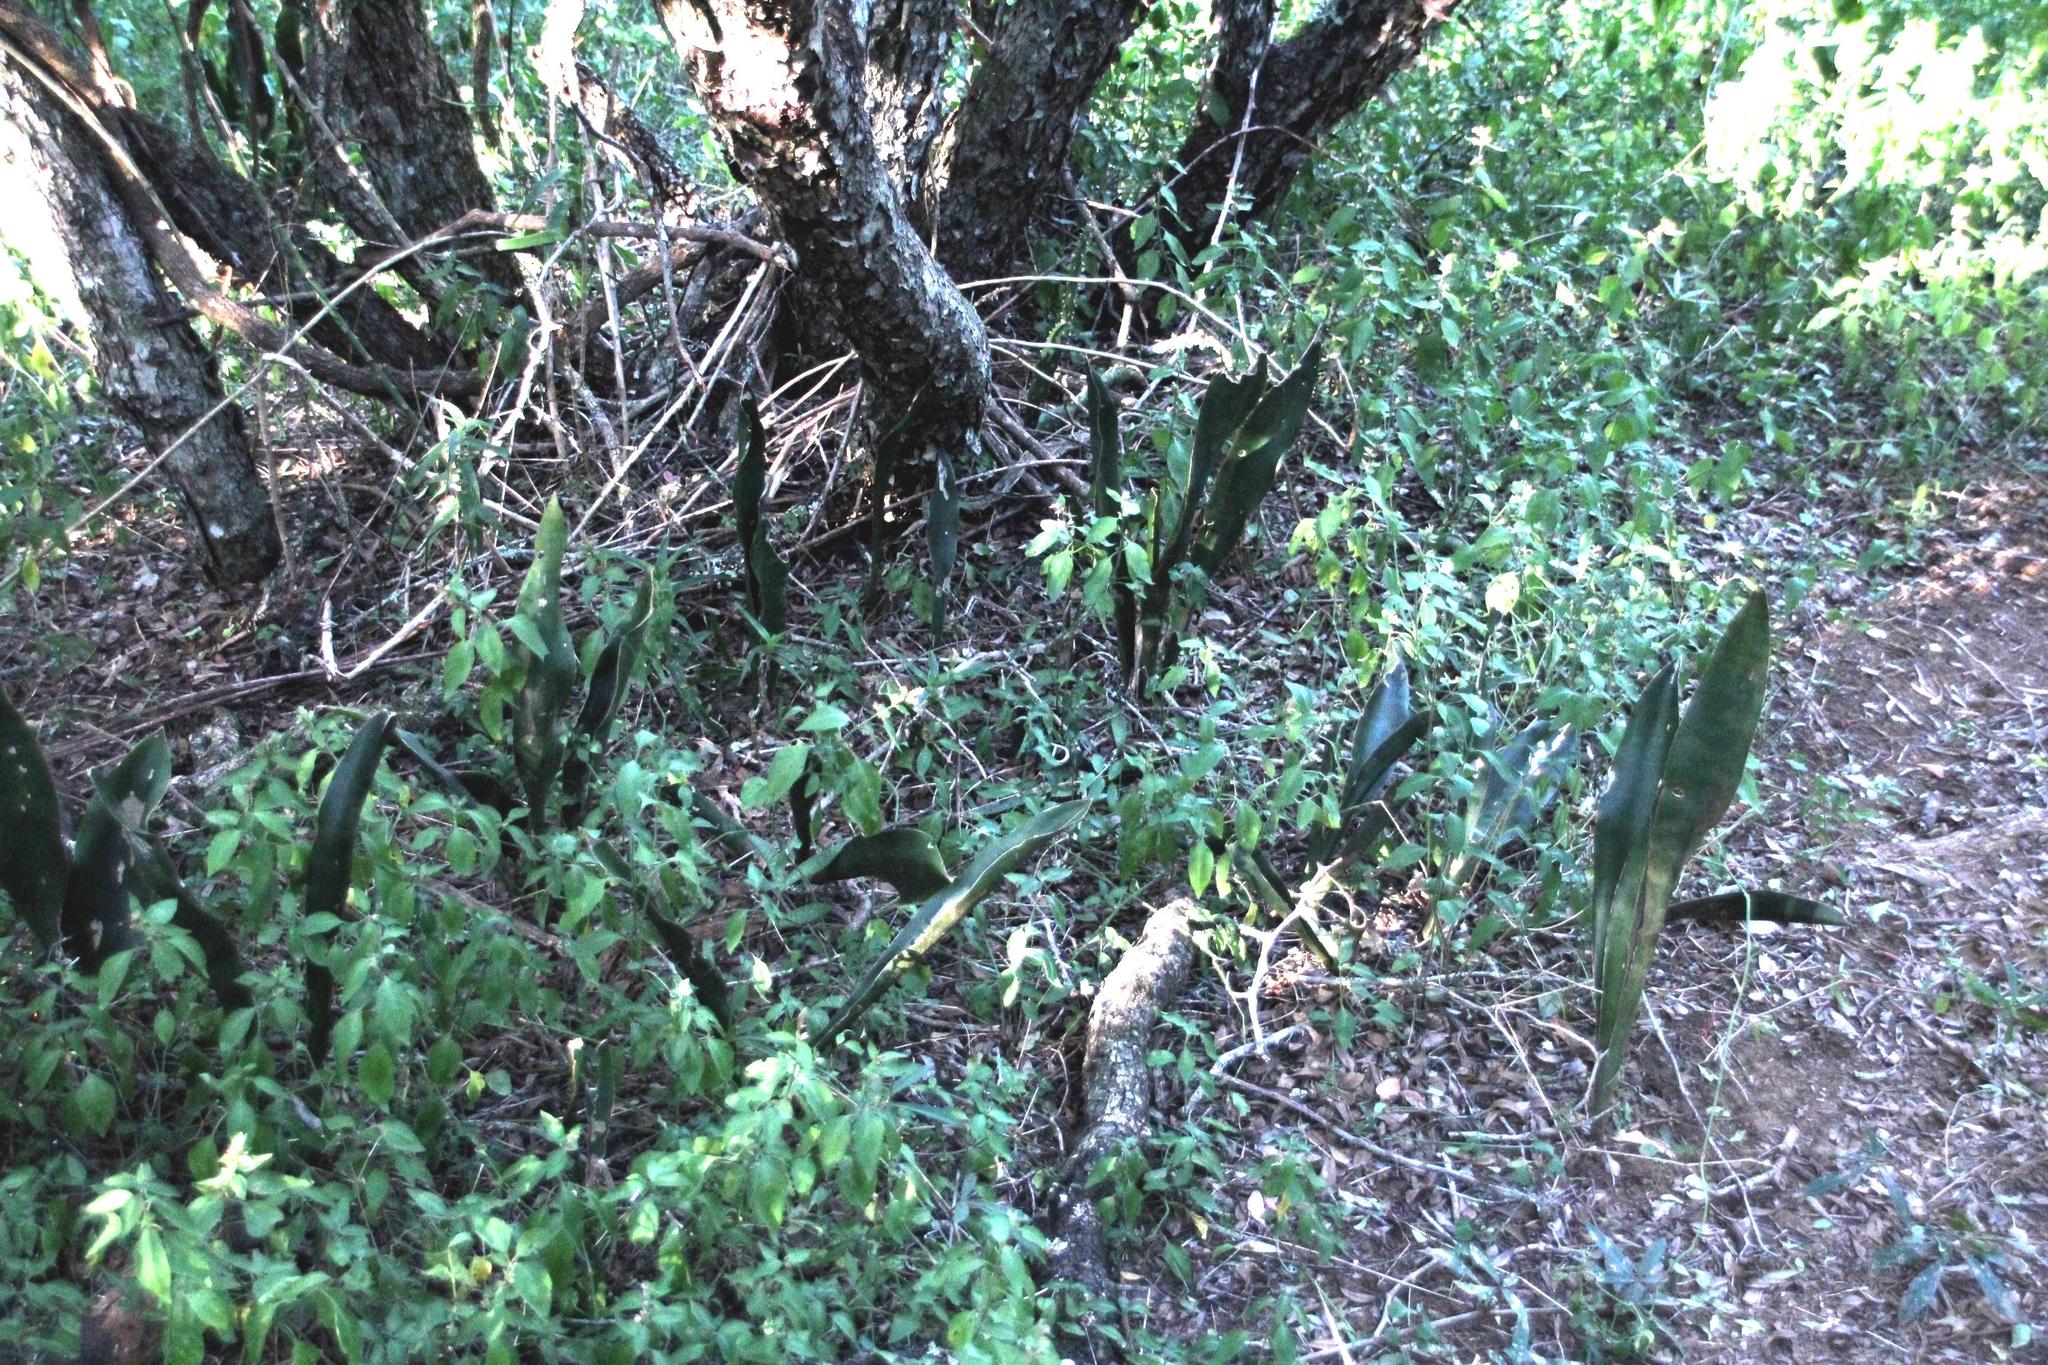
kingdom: Plantae
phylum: Tracheophyta
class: Liliopsida
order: Asparagales
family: Asparagaceae
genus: Dracaena
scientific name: Dracaena hyacinthoides
